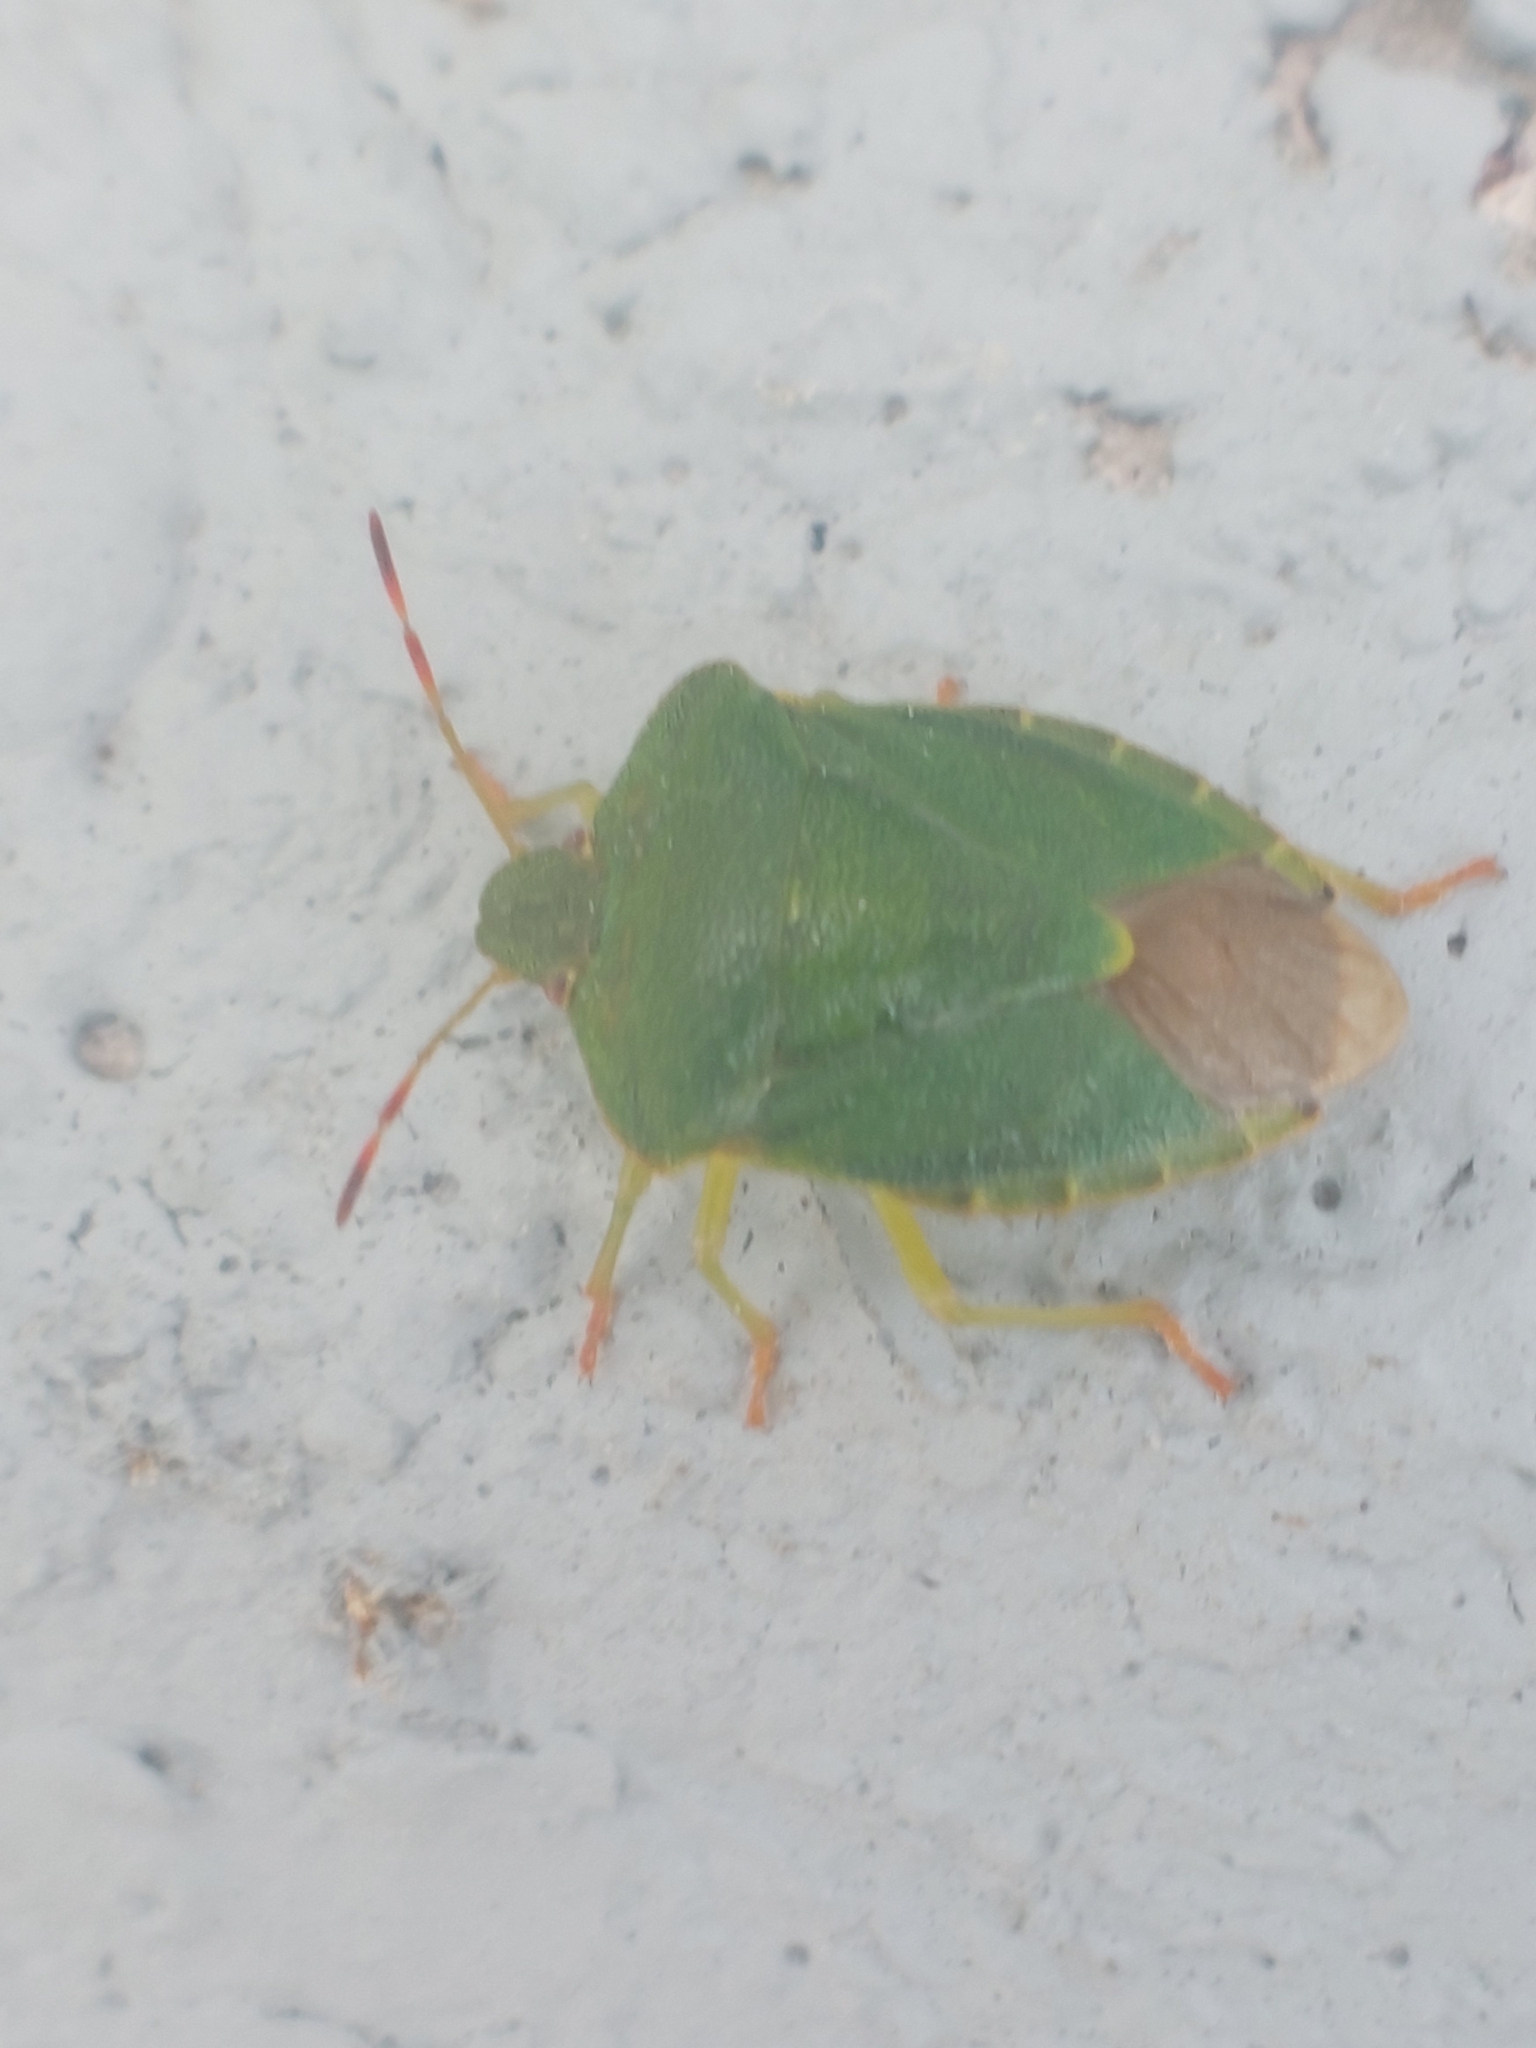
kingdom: Animalia
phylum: Arthropoda
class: Insecta
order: Hemiptera
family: Pentatomidae
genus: Palomena
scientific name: Palomena prasina
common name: Green shieldbug
